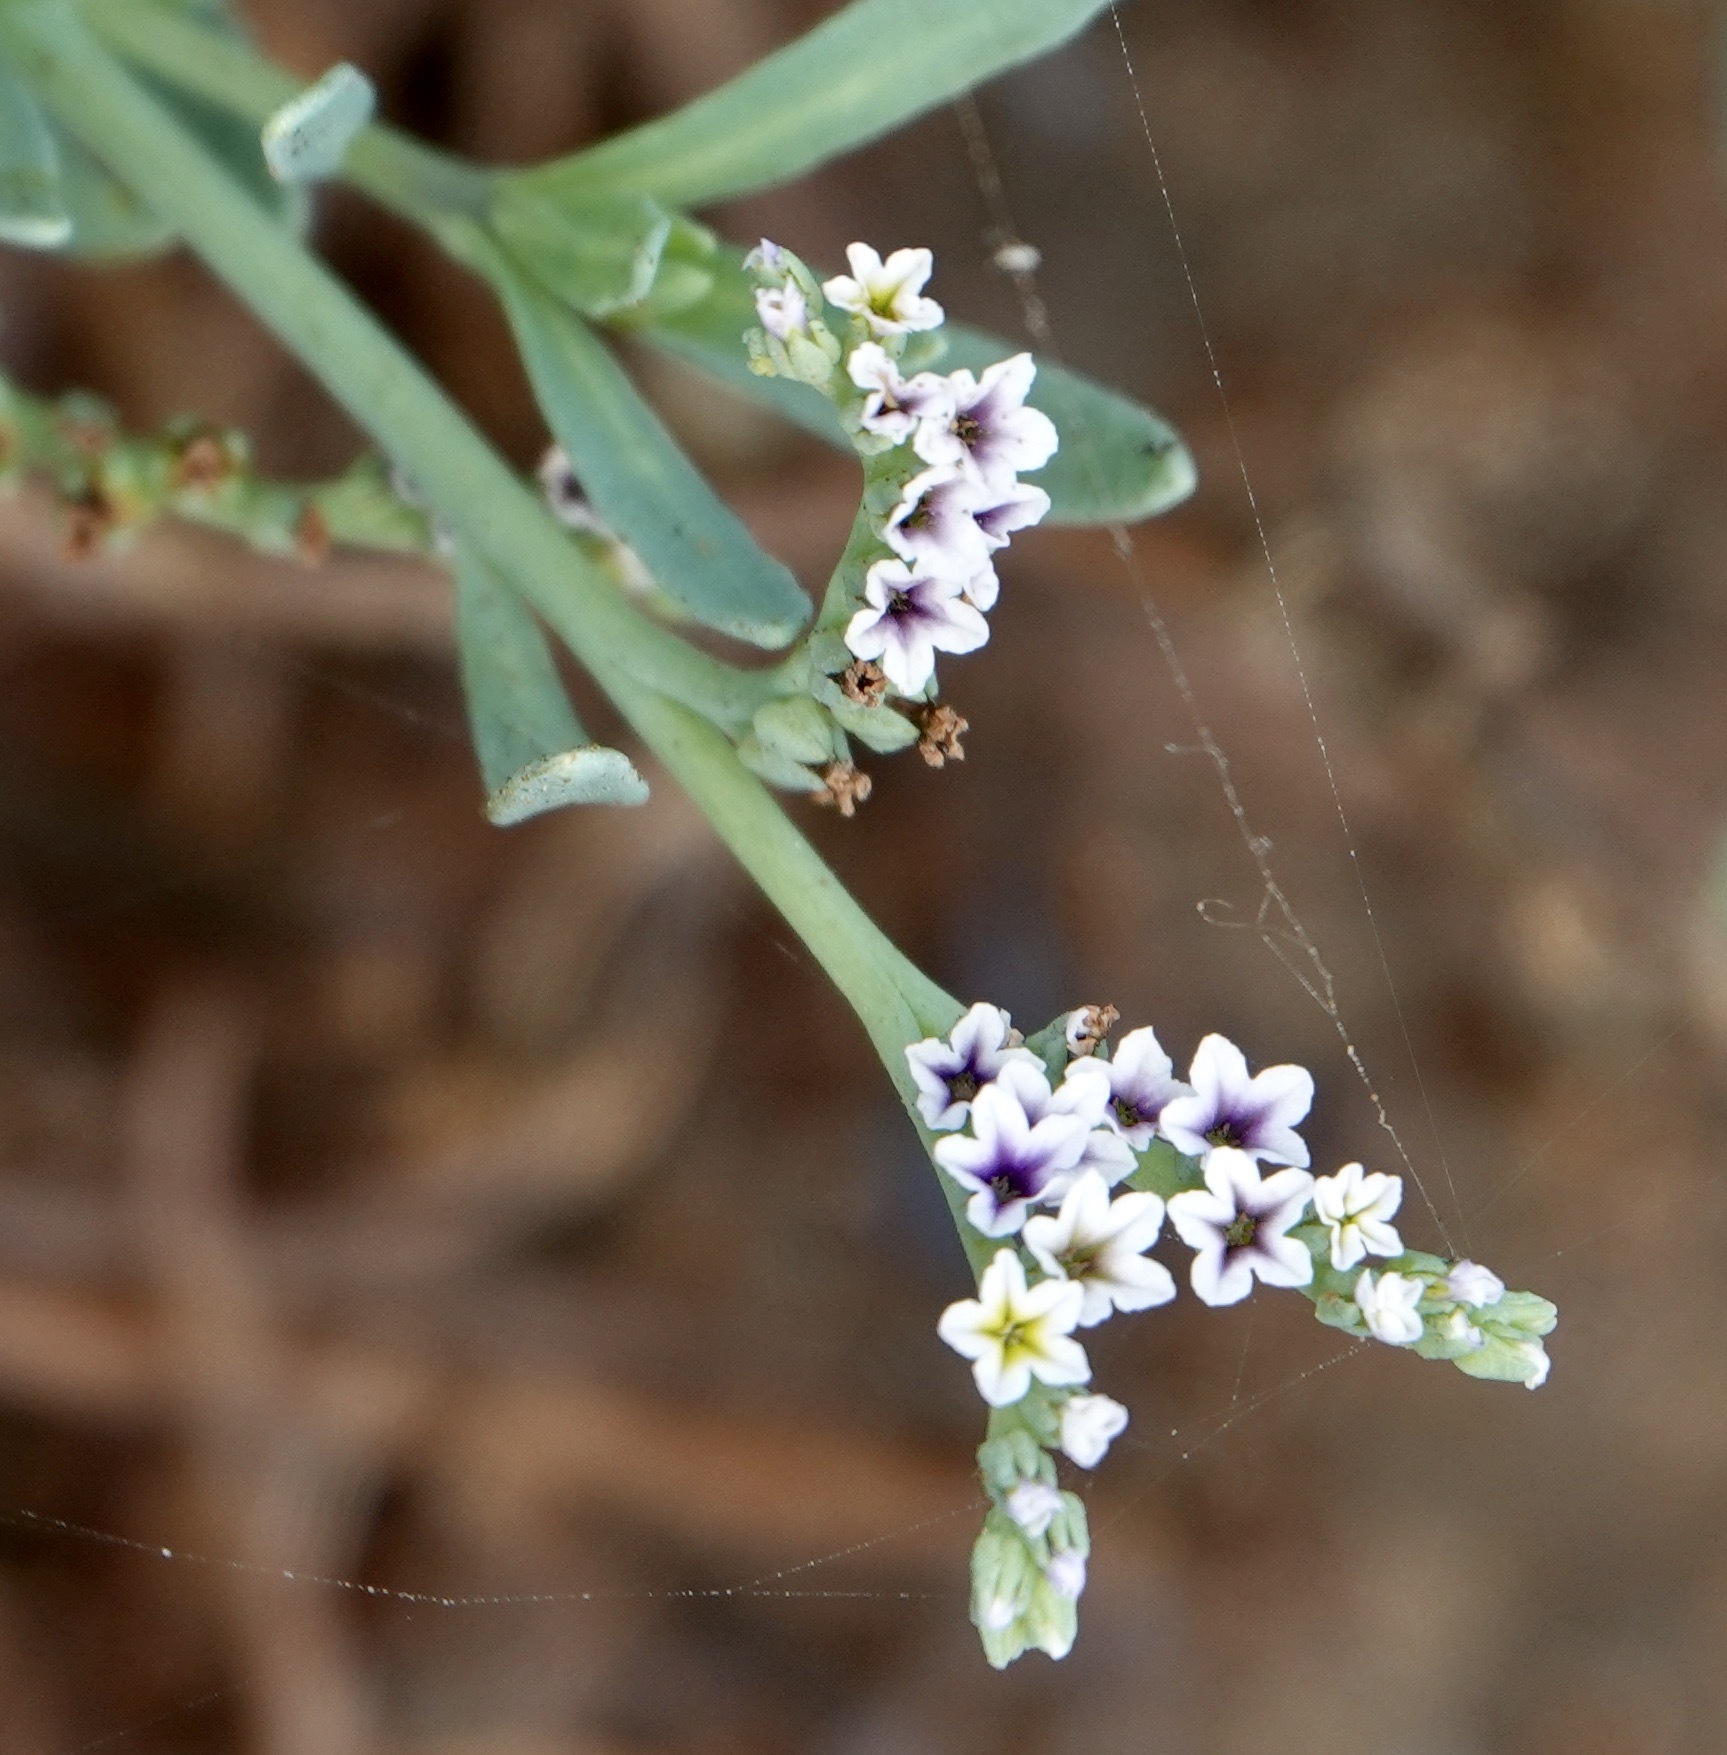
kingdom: Plantae
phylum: Tracheophyta
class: Magnoliopsida
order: Boraginales
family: Heliotropiaceae
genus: Heliotropium
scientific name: Heliotropium curassavicum
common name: Seaside heliotrope
